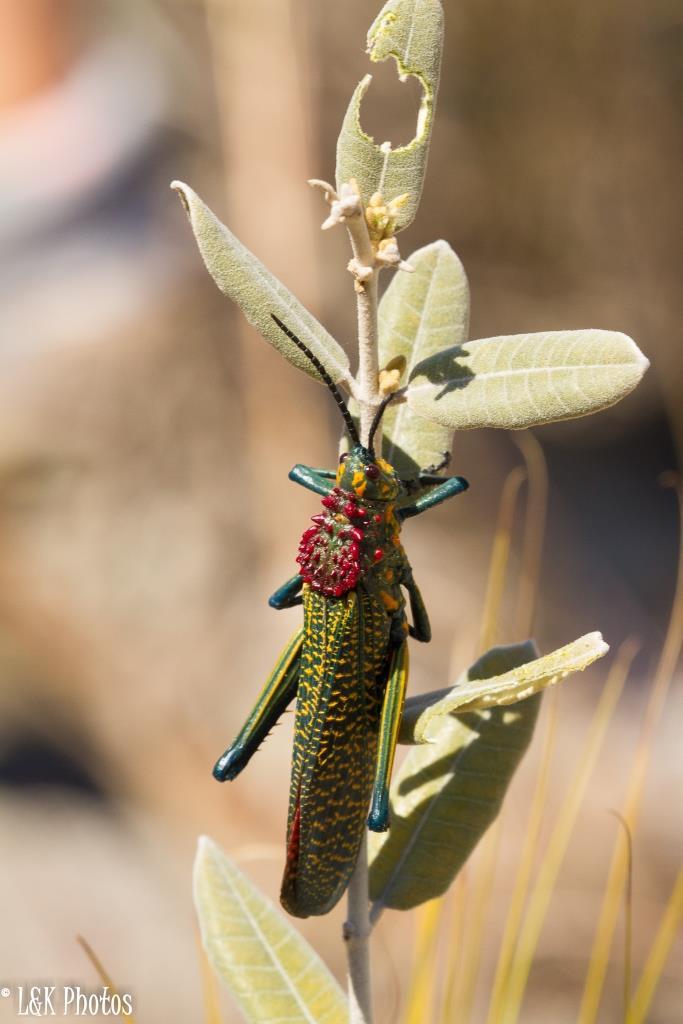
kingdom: Plantae
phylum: Tracheophyta
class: Magnoliopsida
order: Gentianales
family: Apocynaceae
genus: Pervillaea
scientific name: Pervillaea venenata
